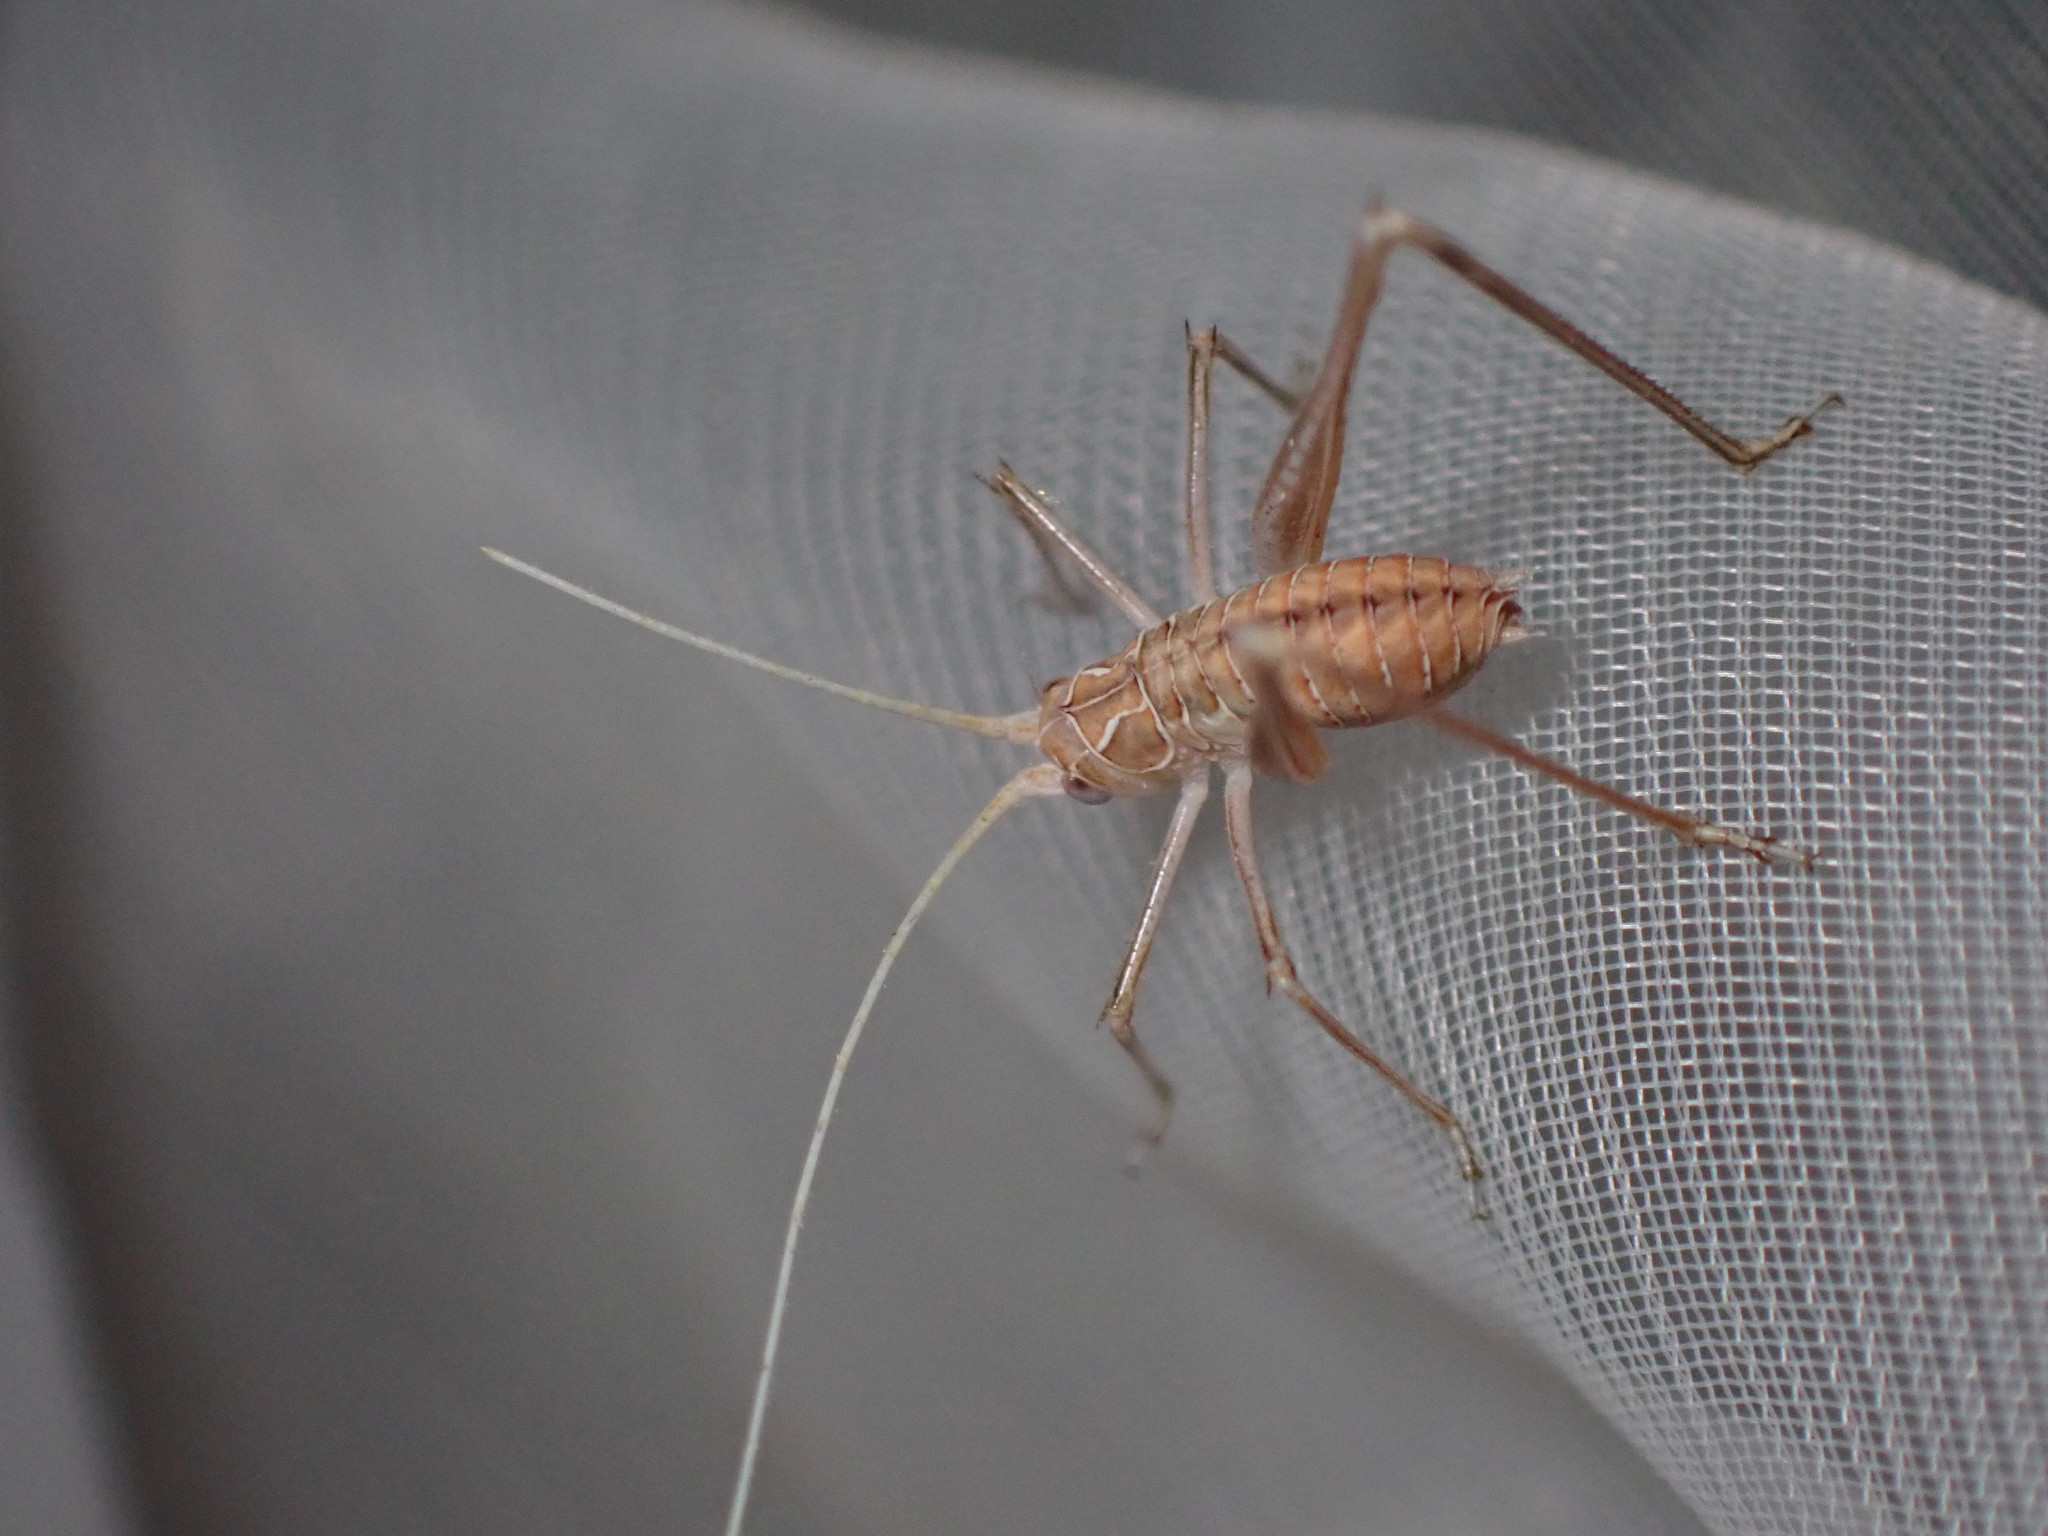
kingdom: Animalia
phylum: Arthropoda
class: Insecta
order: Orthoptera
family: Tettigoniidae
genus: Tylopsis
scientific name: Tylopsis lilifolia
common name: Lily bush-cricket
